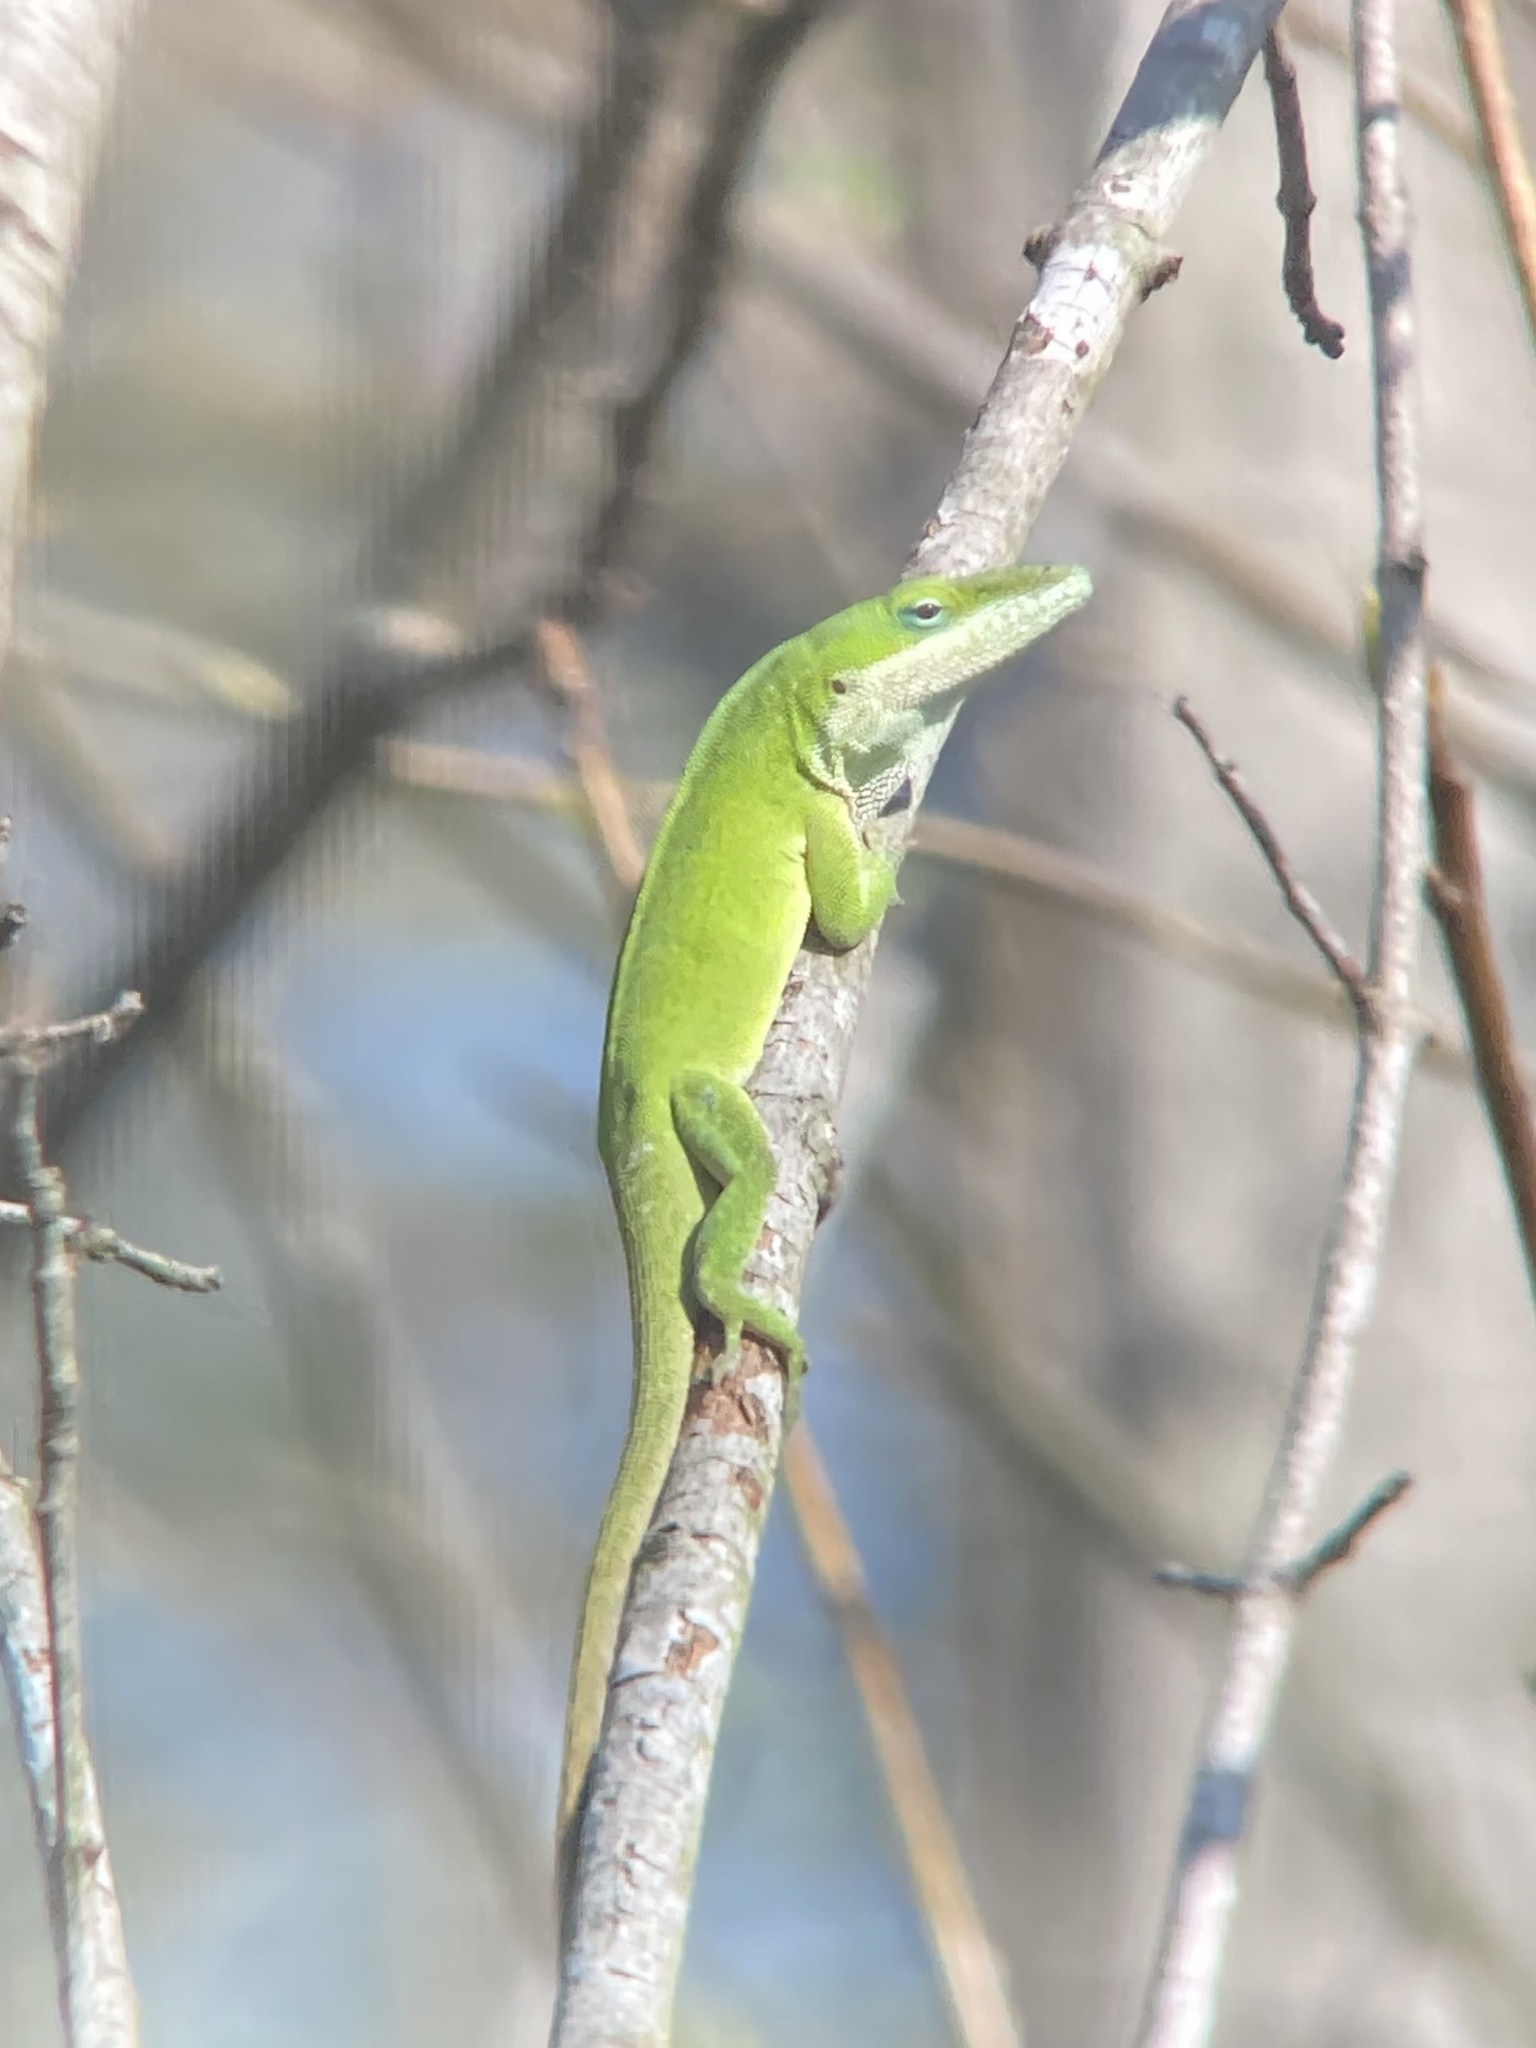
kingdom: Animalia
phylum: Chordata
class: Squamata
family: Dactyloidae
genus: Anolis
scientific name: Anolis carolinensis
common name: Green anole
